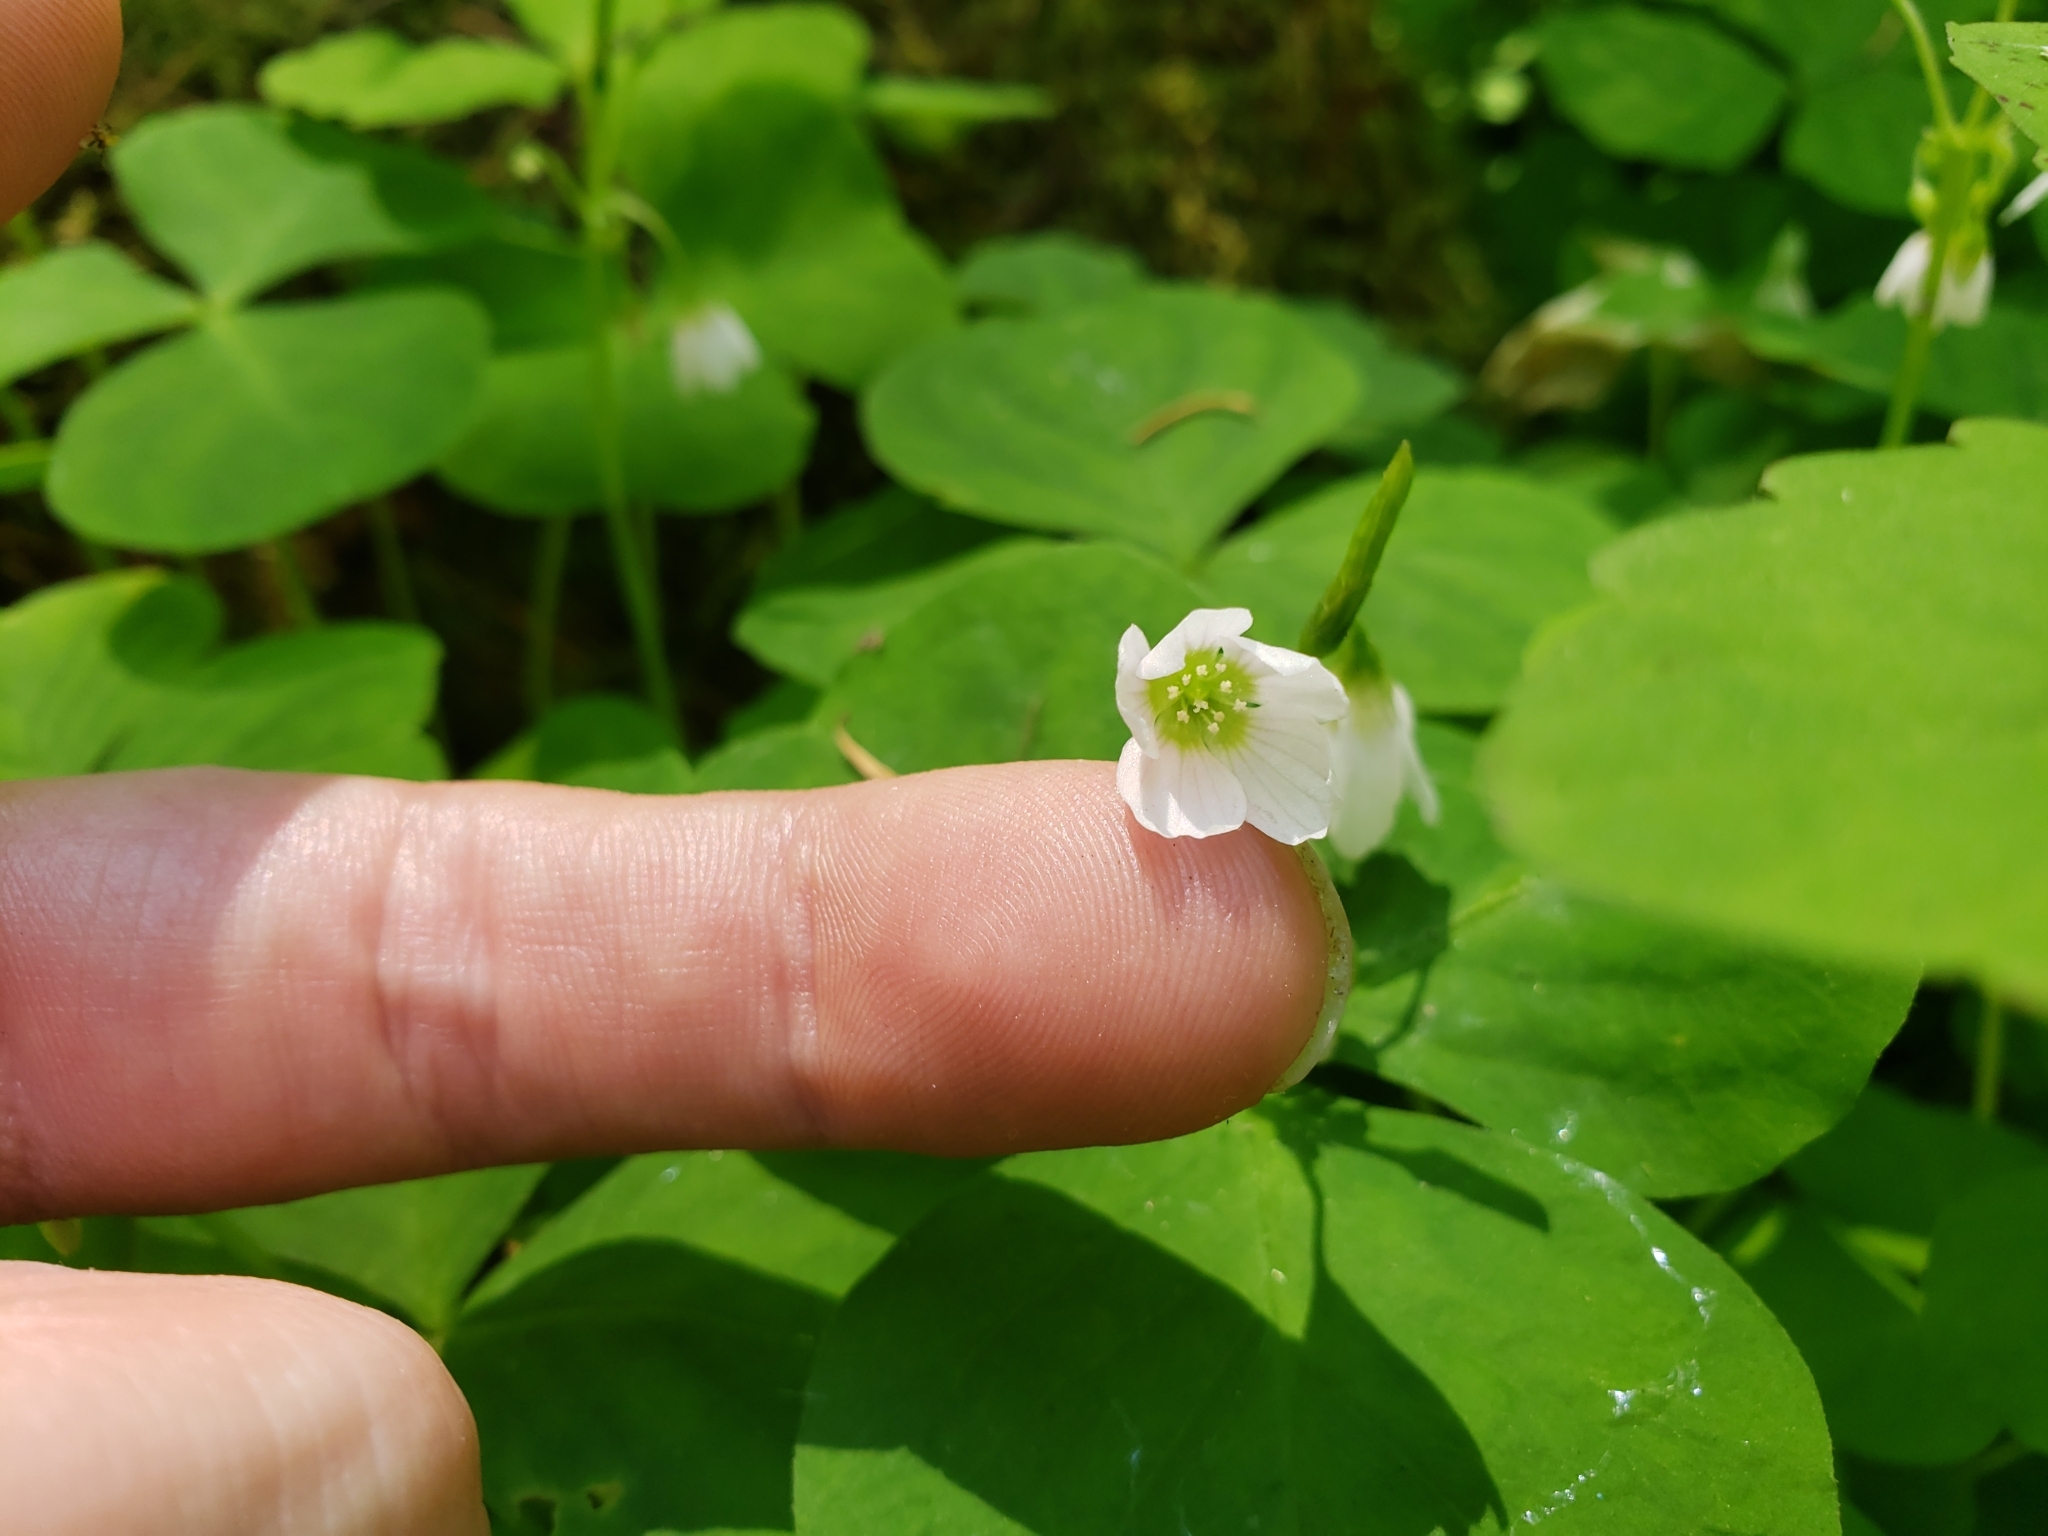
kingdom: Plantae
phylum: Tracheophyta
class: Magnoliopsida
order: Oxalidales
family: Oxalidaceae
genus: Oxalis
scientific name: Oxalis trilliifolia
